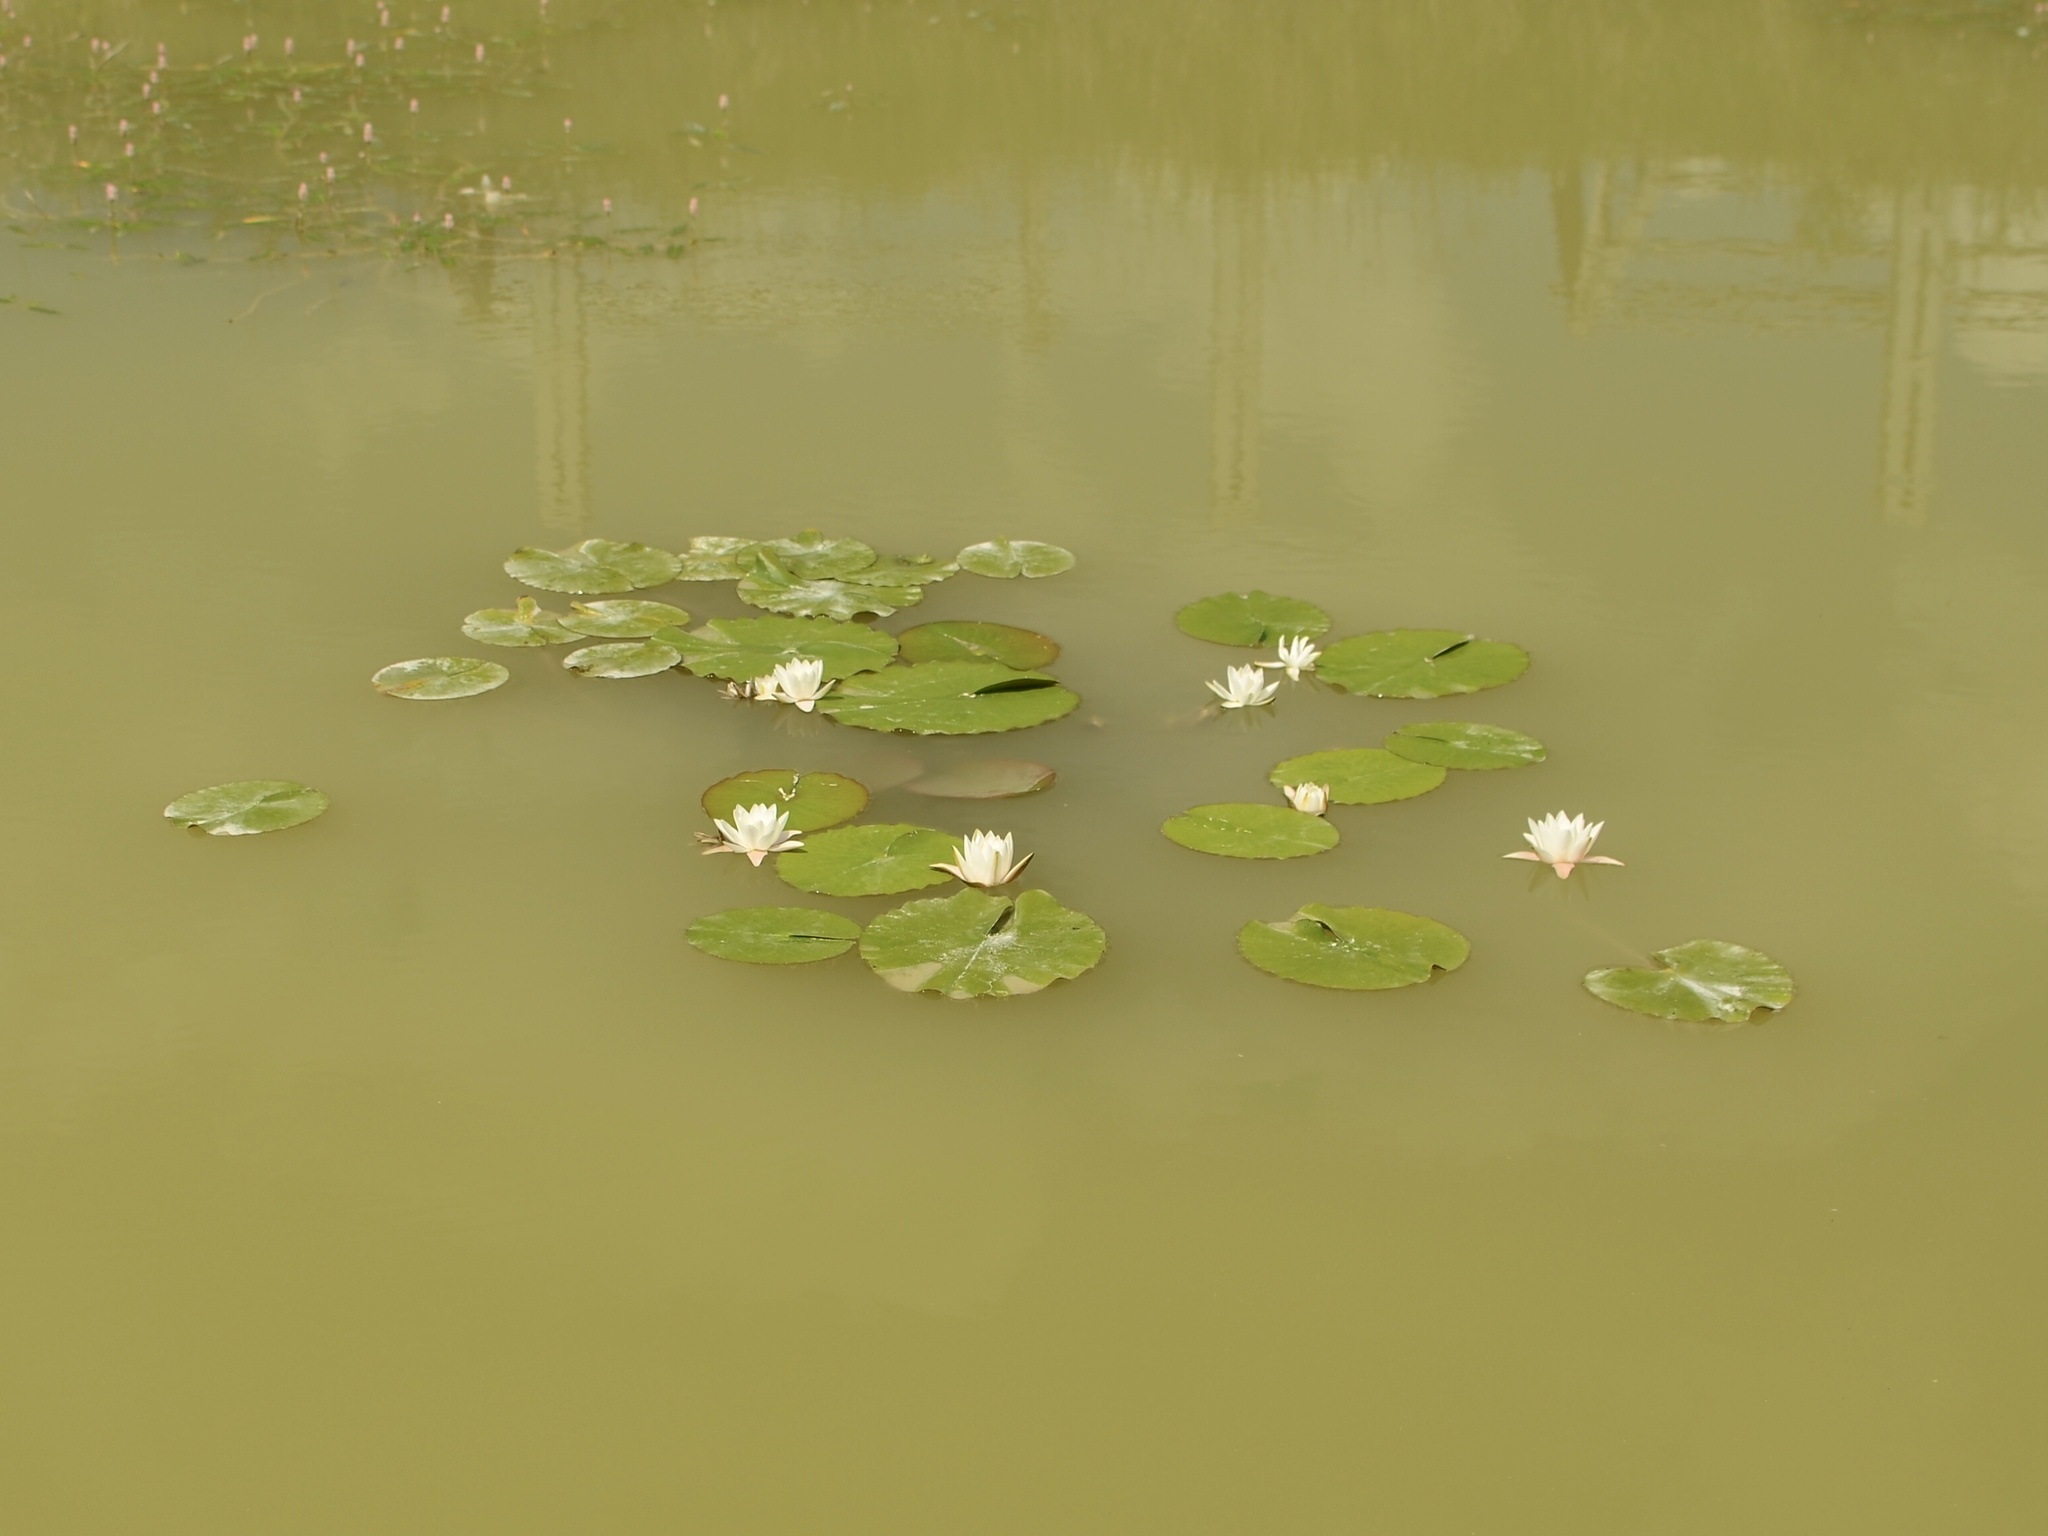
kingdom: Plantae
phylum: Tracheophyta
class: Magnoliopsida
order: Nymphaeales
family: Nymphaeaceae
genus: Nymphaea
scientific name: Nymphaea alba
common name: White water-lily
